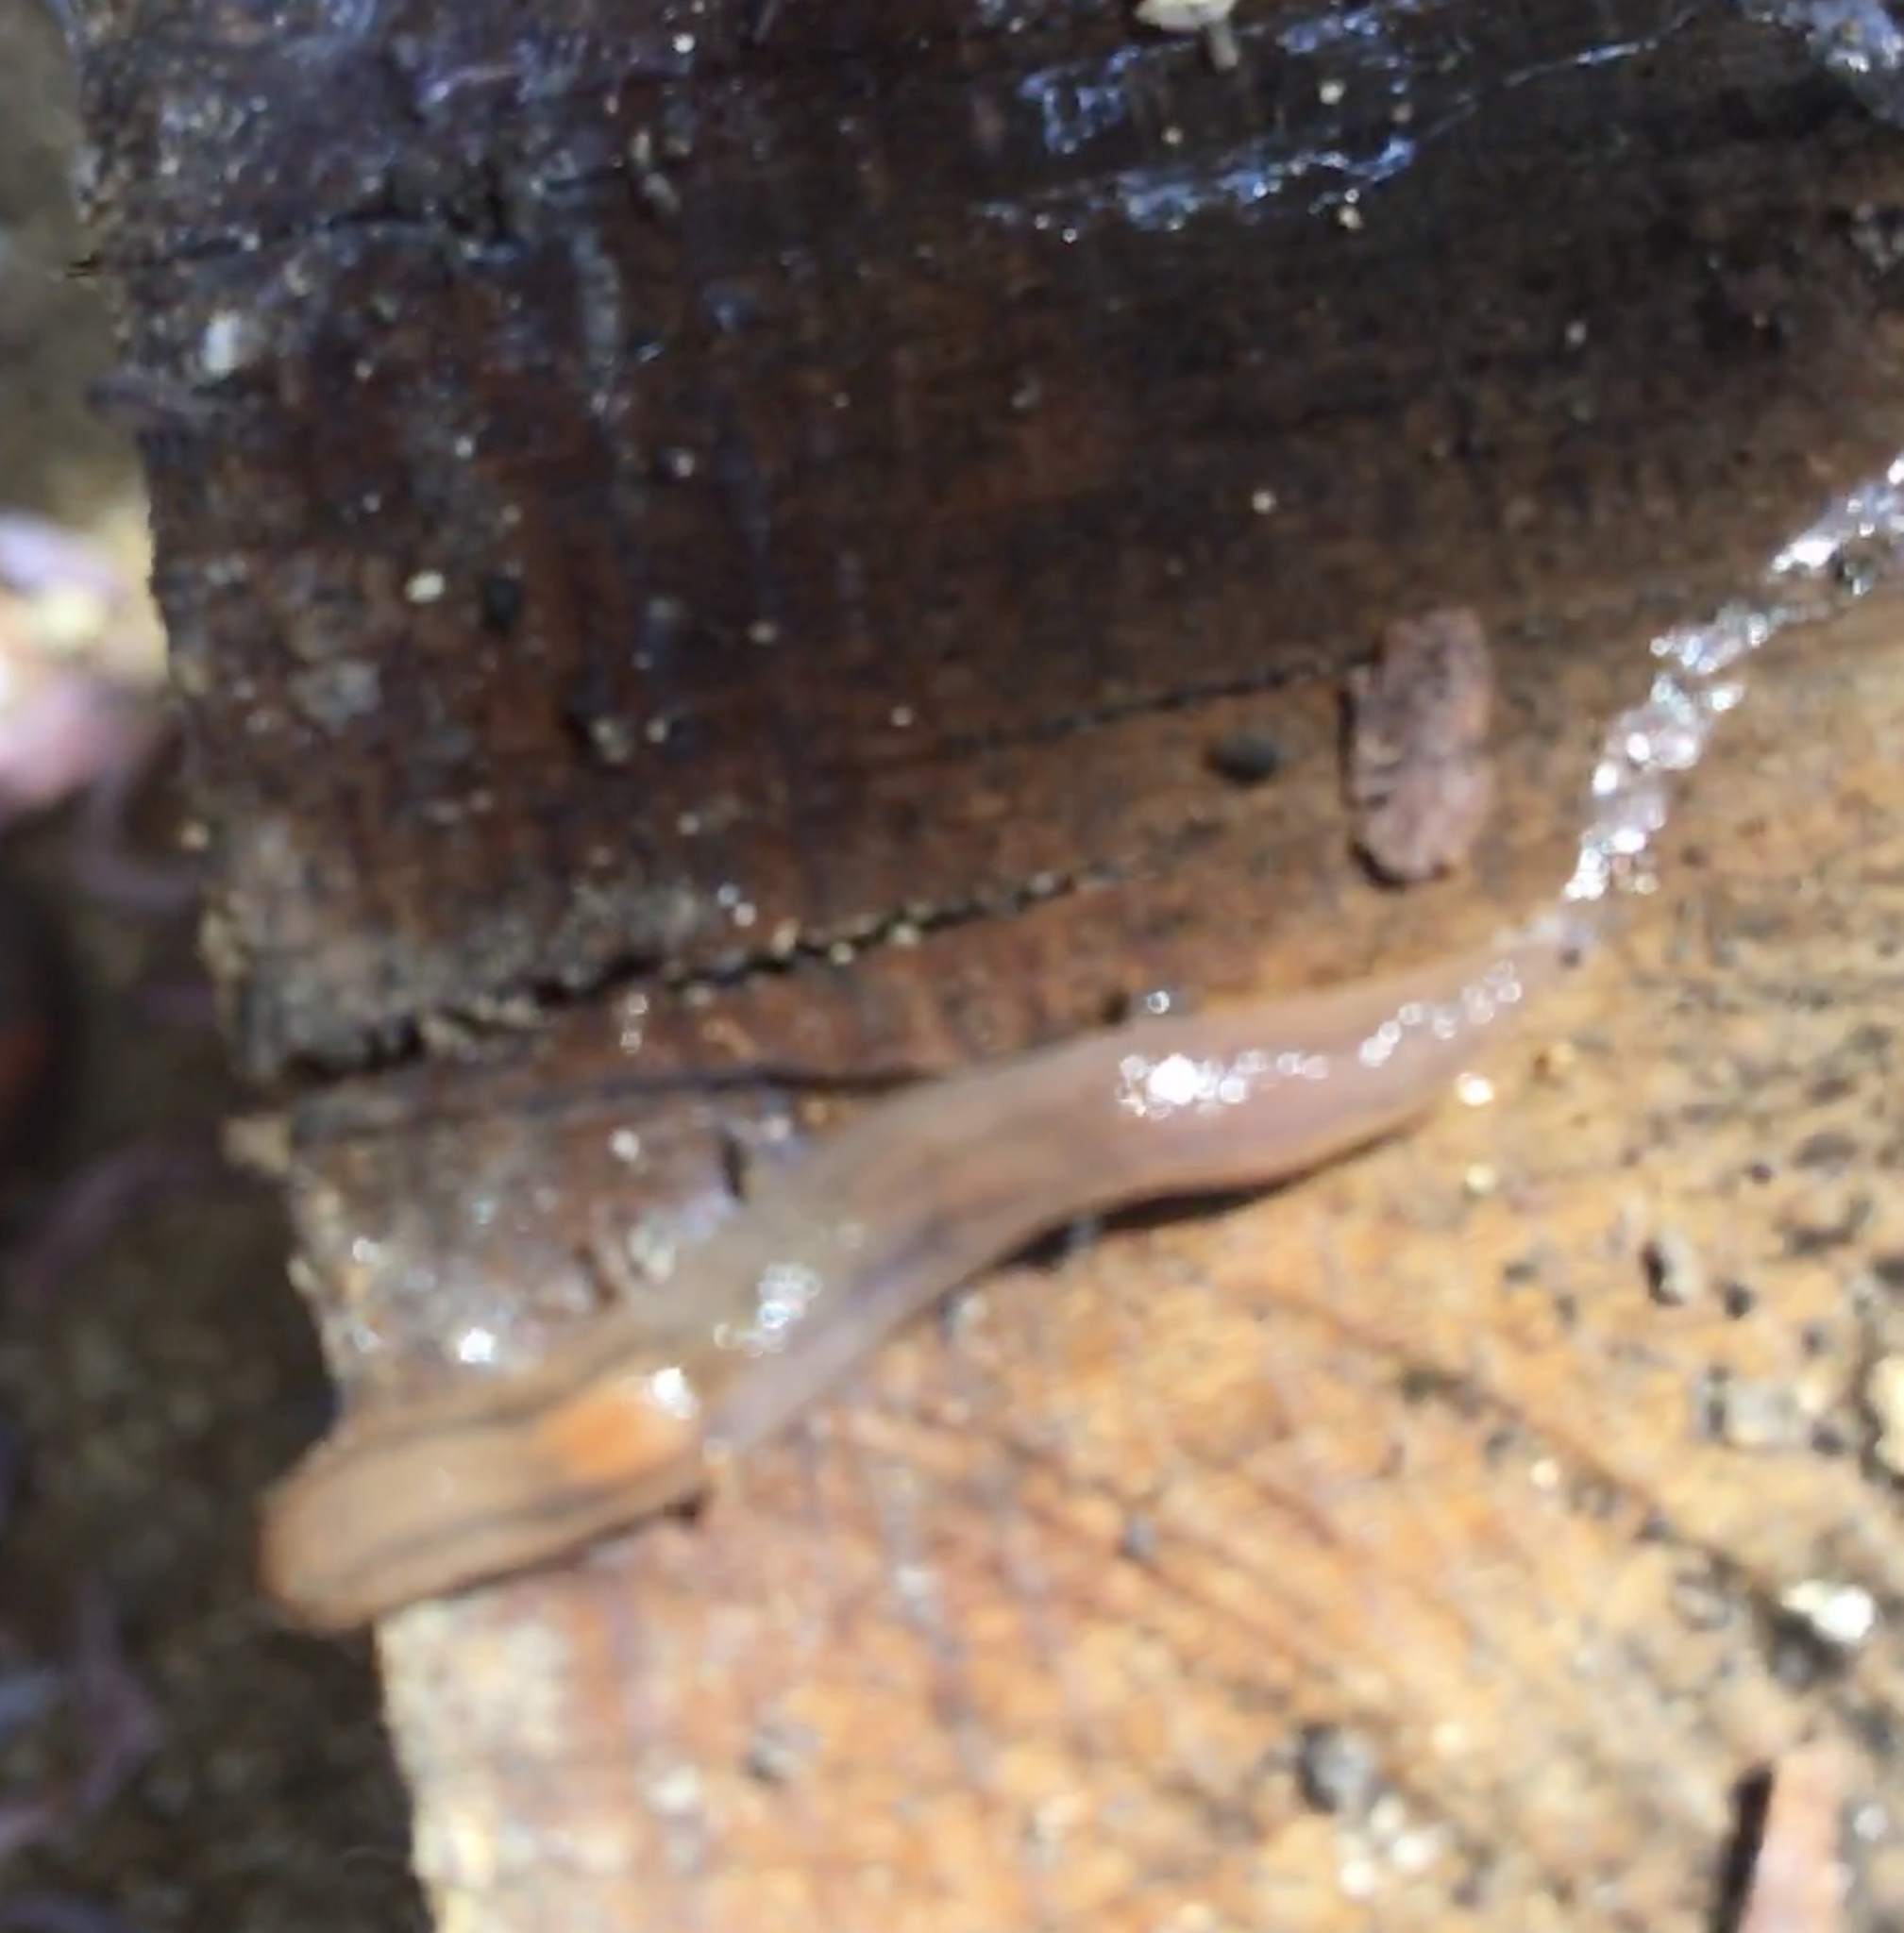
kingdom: Animalia
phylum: Mollusca
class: Gastropoda
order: Stylommatophora
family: Limacidae
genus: Ambigolimax
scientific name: Ambigolimax
